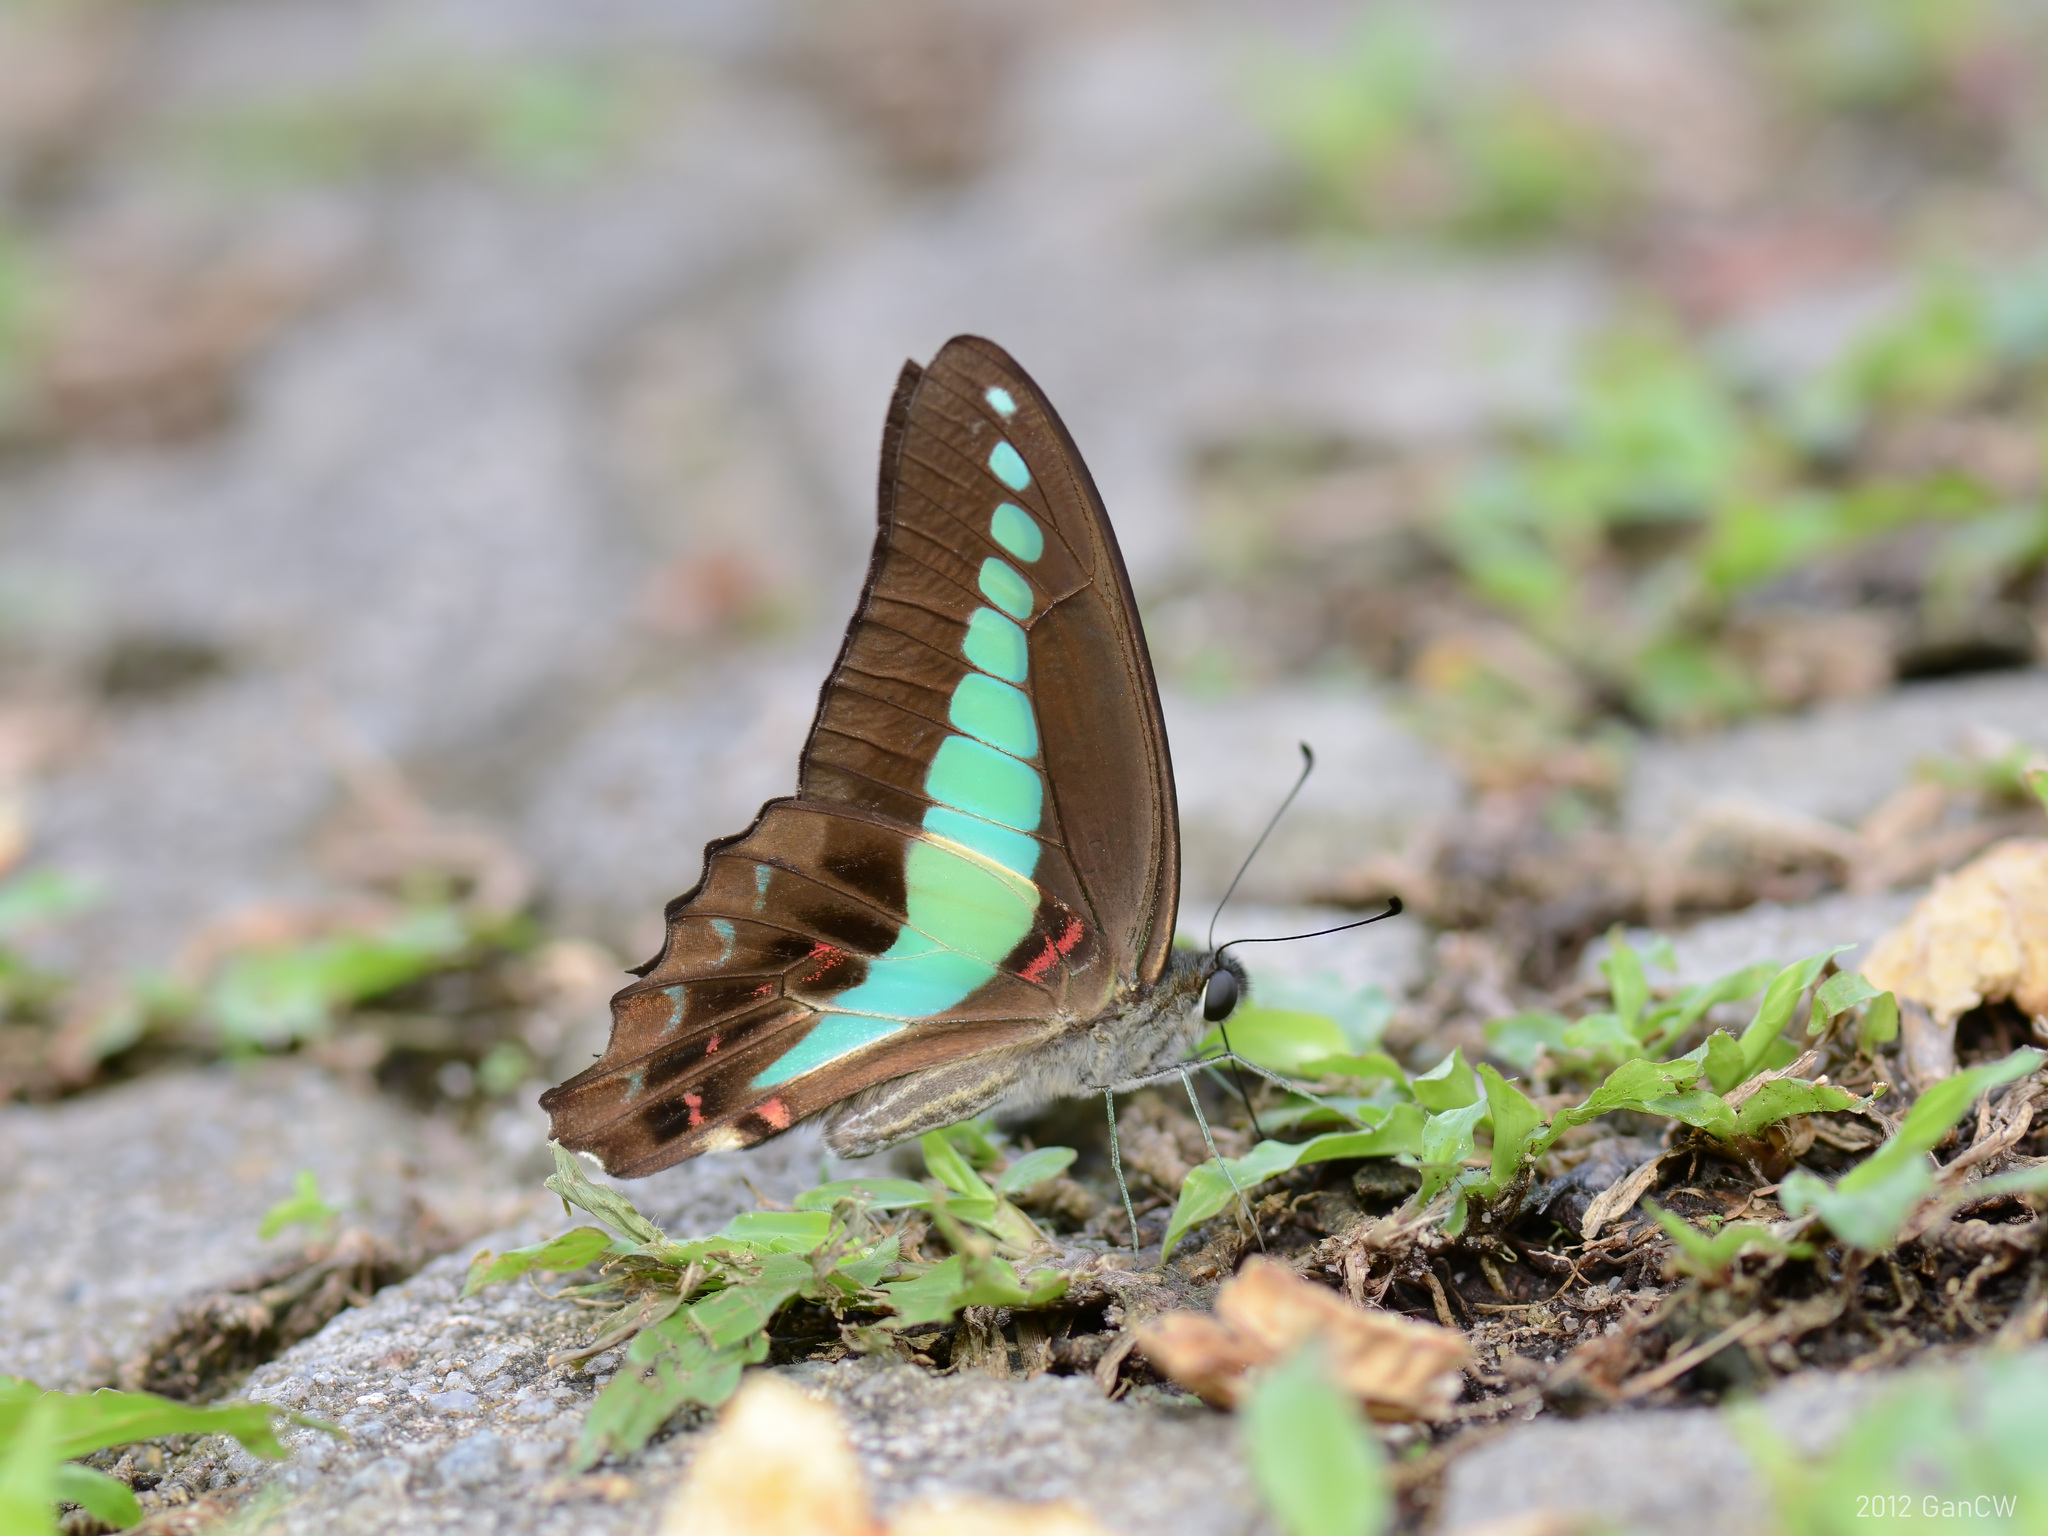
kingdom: Fungi
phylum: Ascomycota
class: Sordariomycetes
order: Microascales
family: Microascaceae
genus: Graphium
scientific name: Graphium sarpedon
